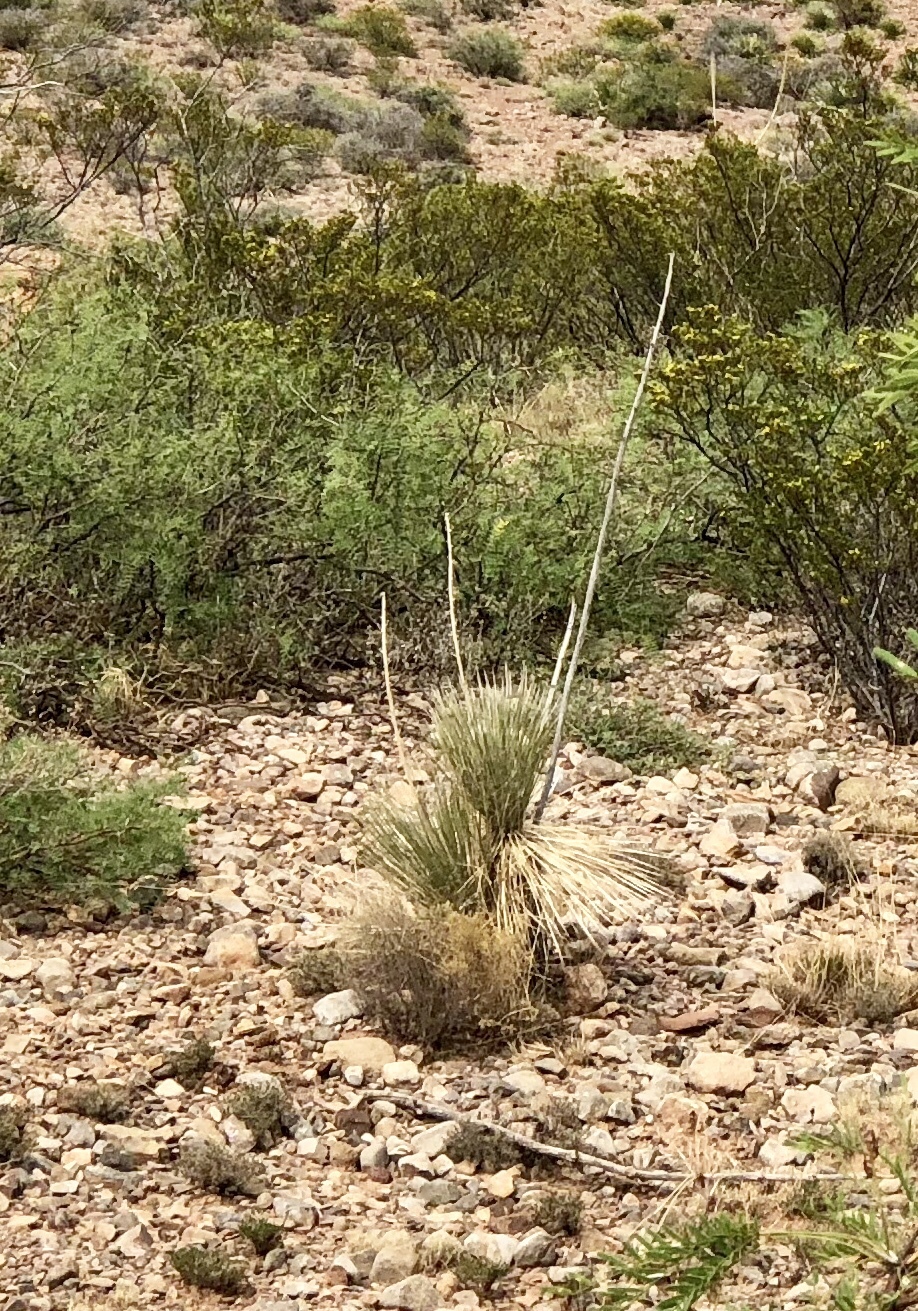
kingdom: Plantae
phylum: Tracheophyta
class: Liliopsida
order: Asparagales
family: Asparagaceae
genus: Yucca
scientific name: Yucca elata
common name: Palmella
